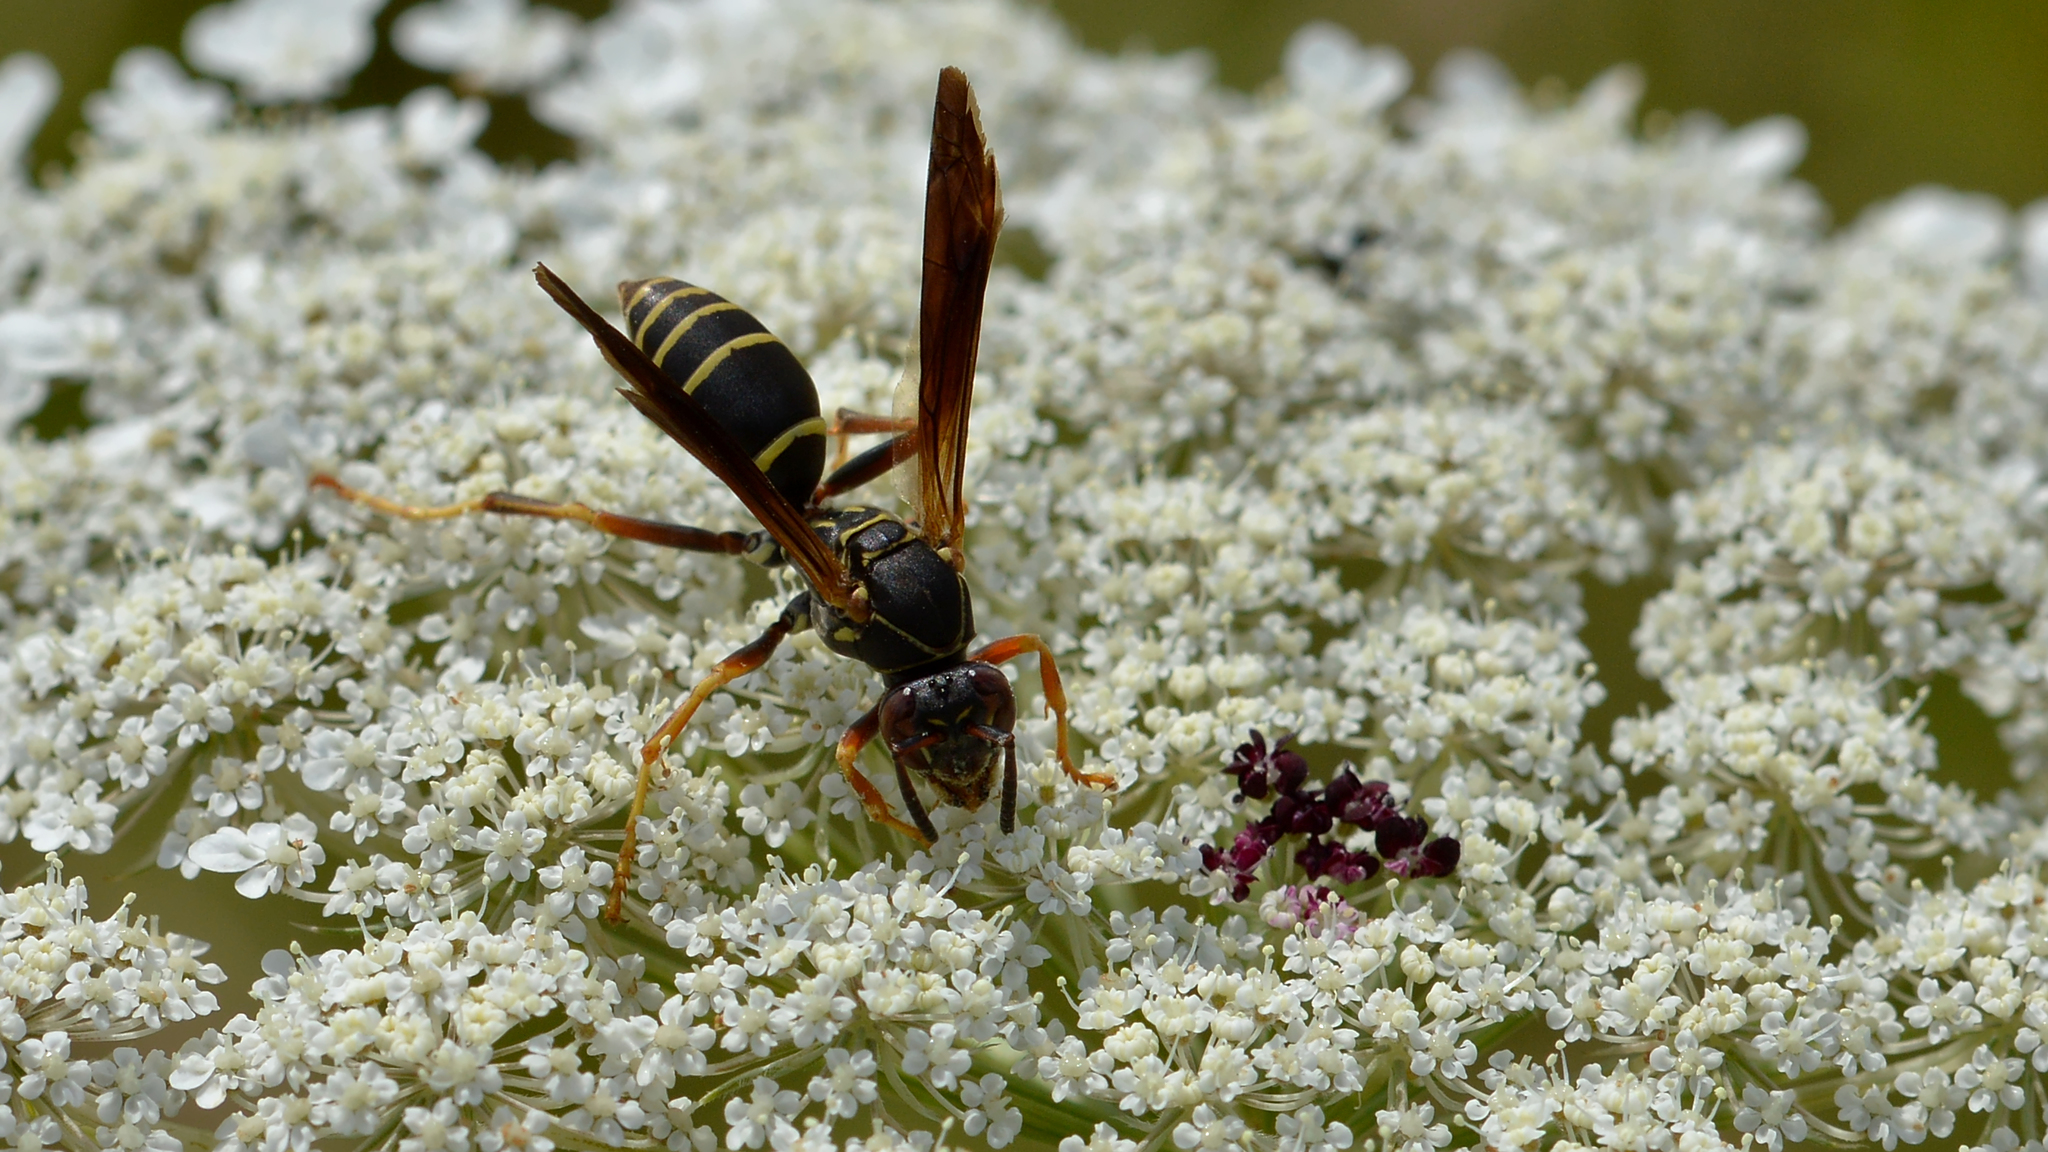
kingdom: Animalia
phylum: Arthropoda
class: Insecta
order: Hymenoptera
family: Eumenidae
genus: Polistes
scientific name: Polistes fuscatus
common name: Dark paper wasp
